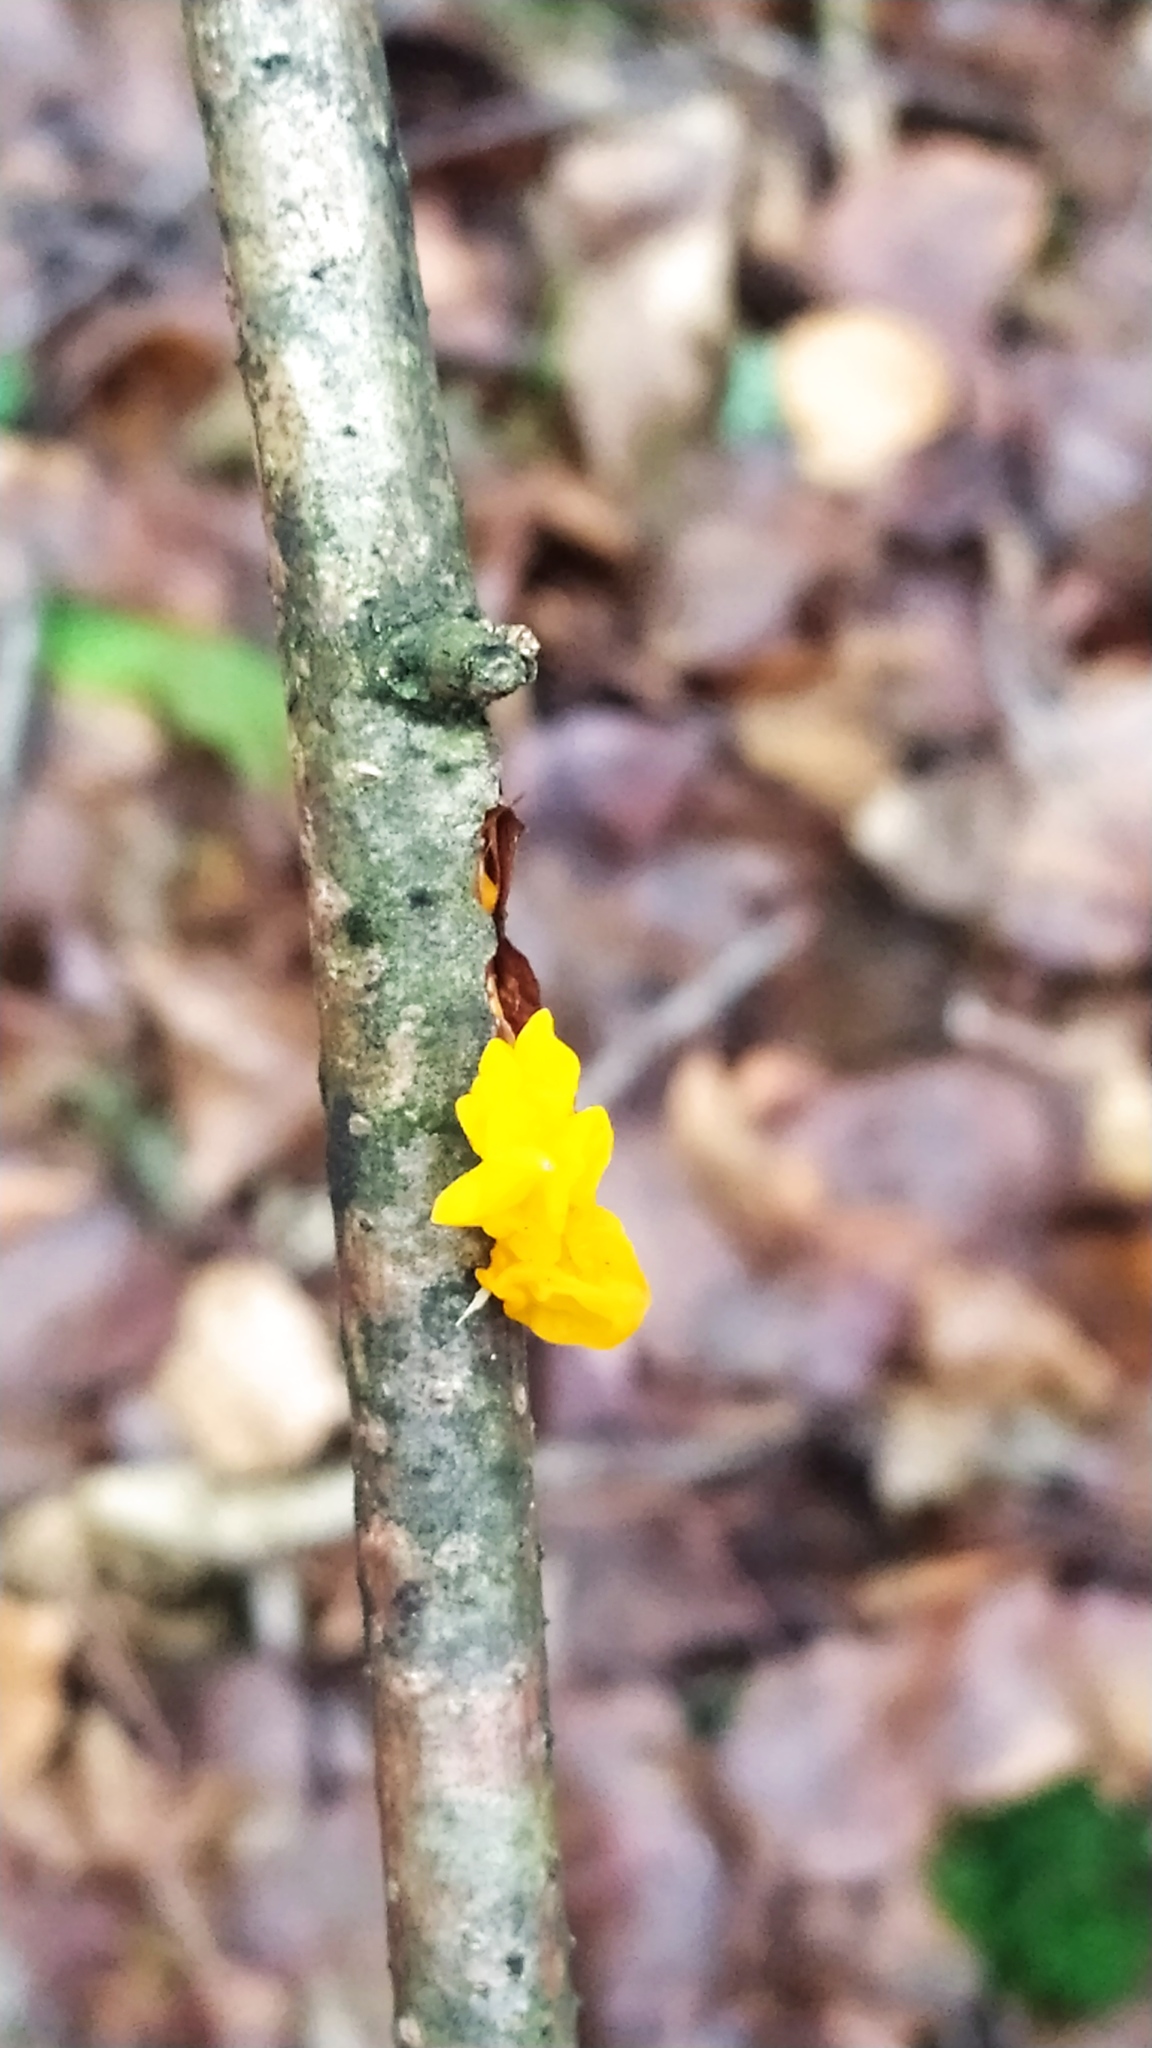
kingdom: Fungi
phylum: Basidiomycota
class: Tremellomycetes
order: Tremellales
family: Tremellaceae
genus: Tremella
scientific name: Tremella mesenterica
